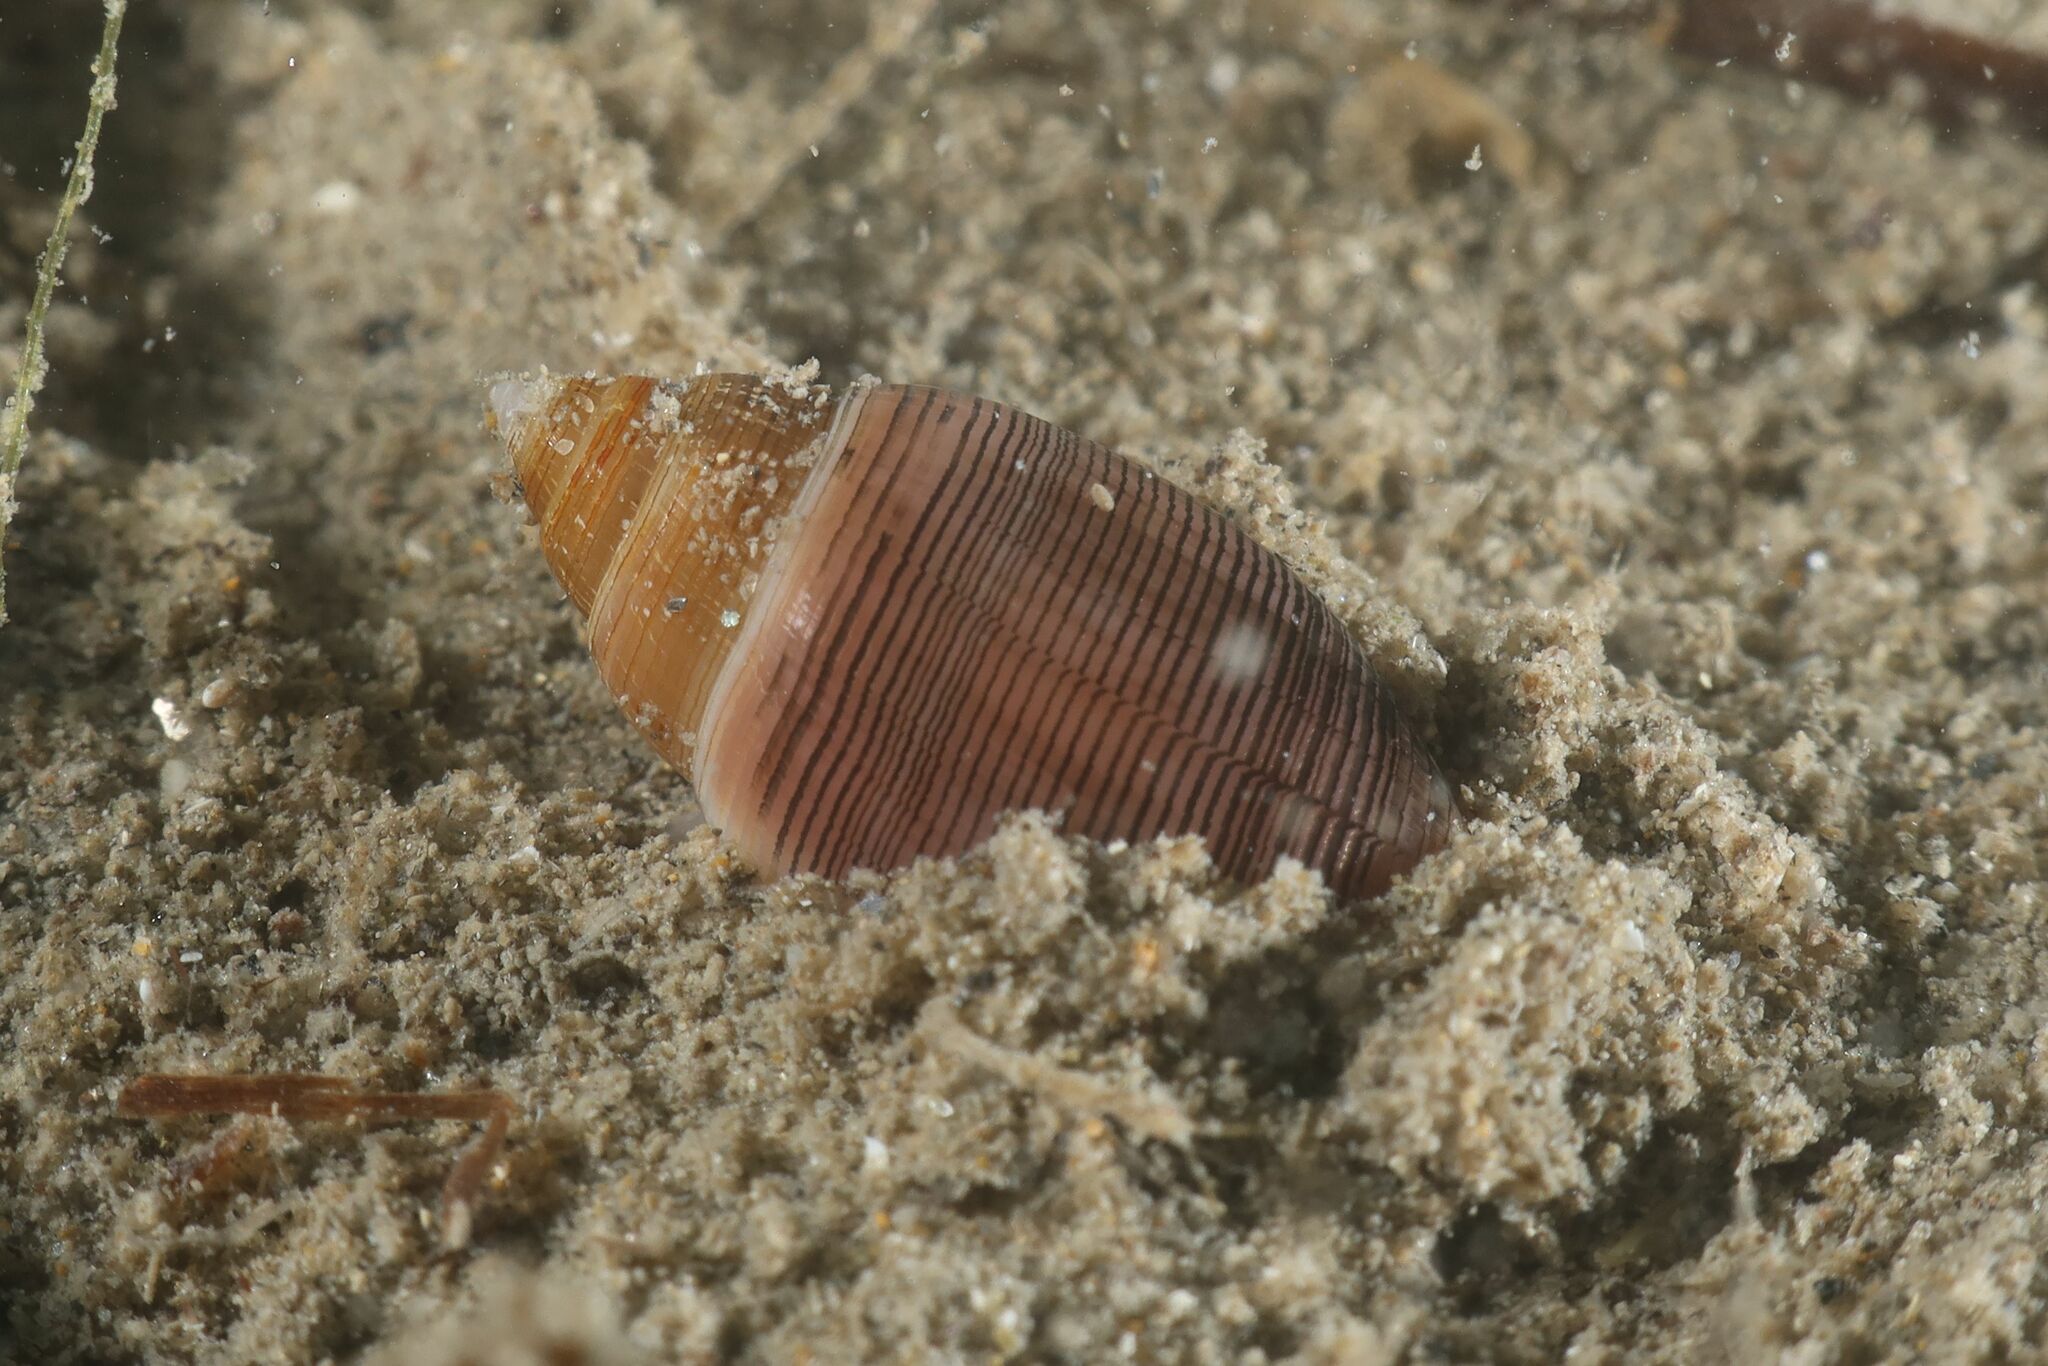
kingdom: Animalia
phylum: Mollusca
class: Gastropoda
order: Cephalaspidea
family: Acteonidae
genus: Acteon
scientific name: Acteon tornatilis
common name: European acteon
